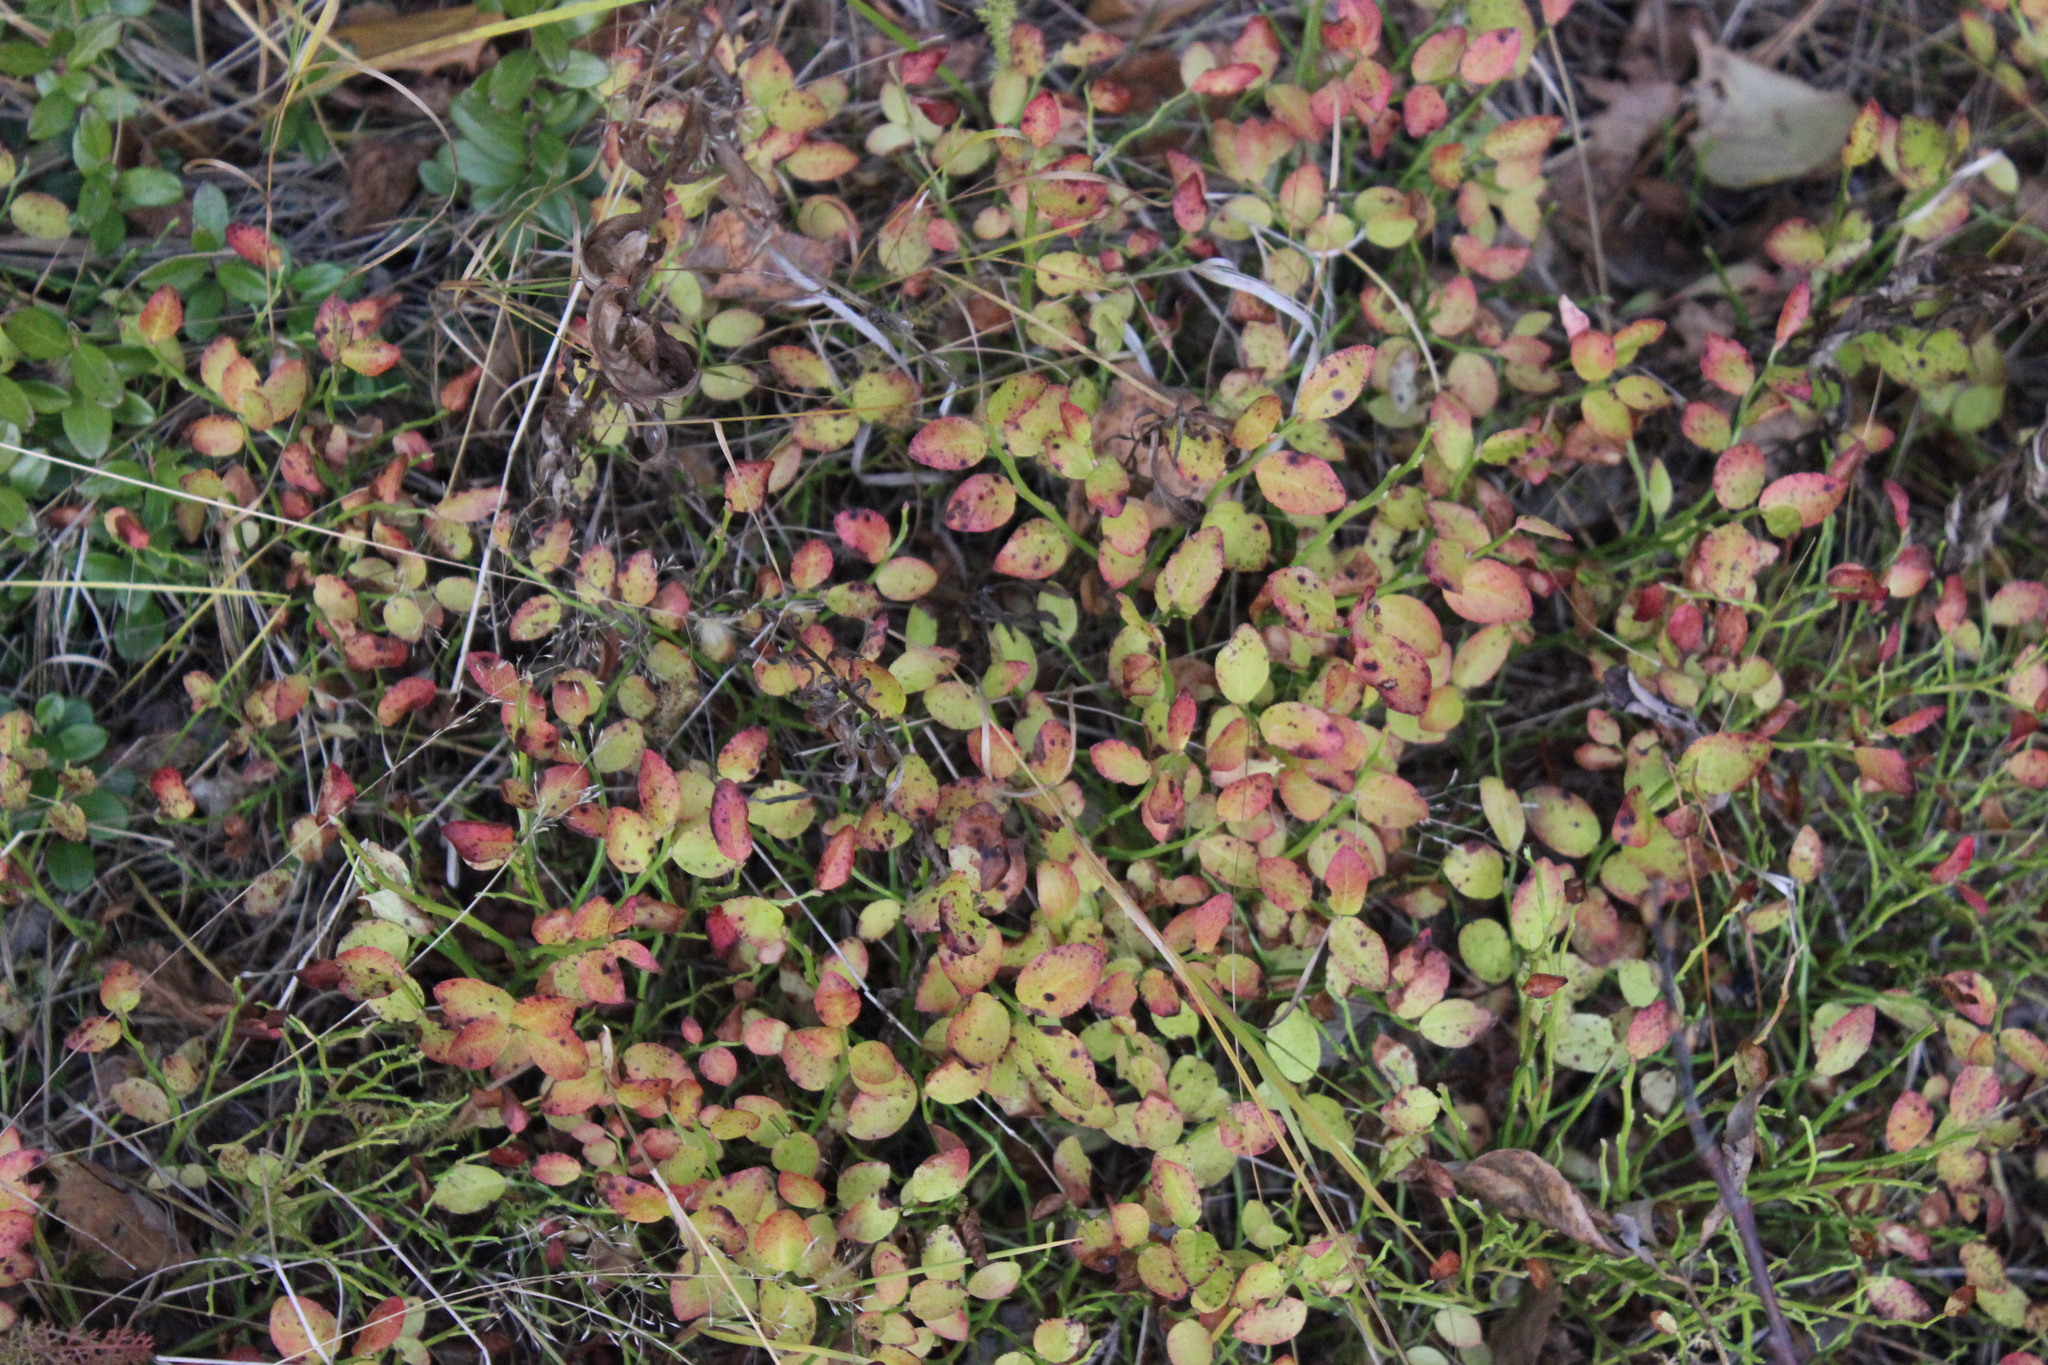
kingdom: Plantae
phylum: Tracheophyta
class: Magnoliopsida
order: Ericales
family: Ericaceae
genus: Vaccinium
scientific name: Vaccinium myrtillus
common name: Bilberry
